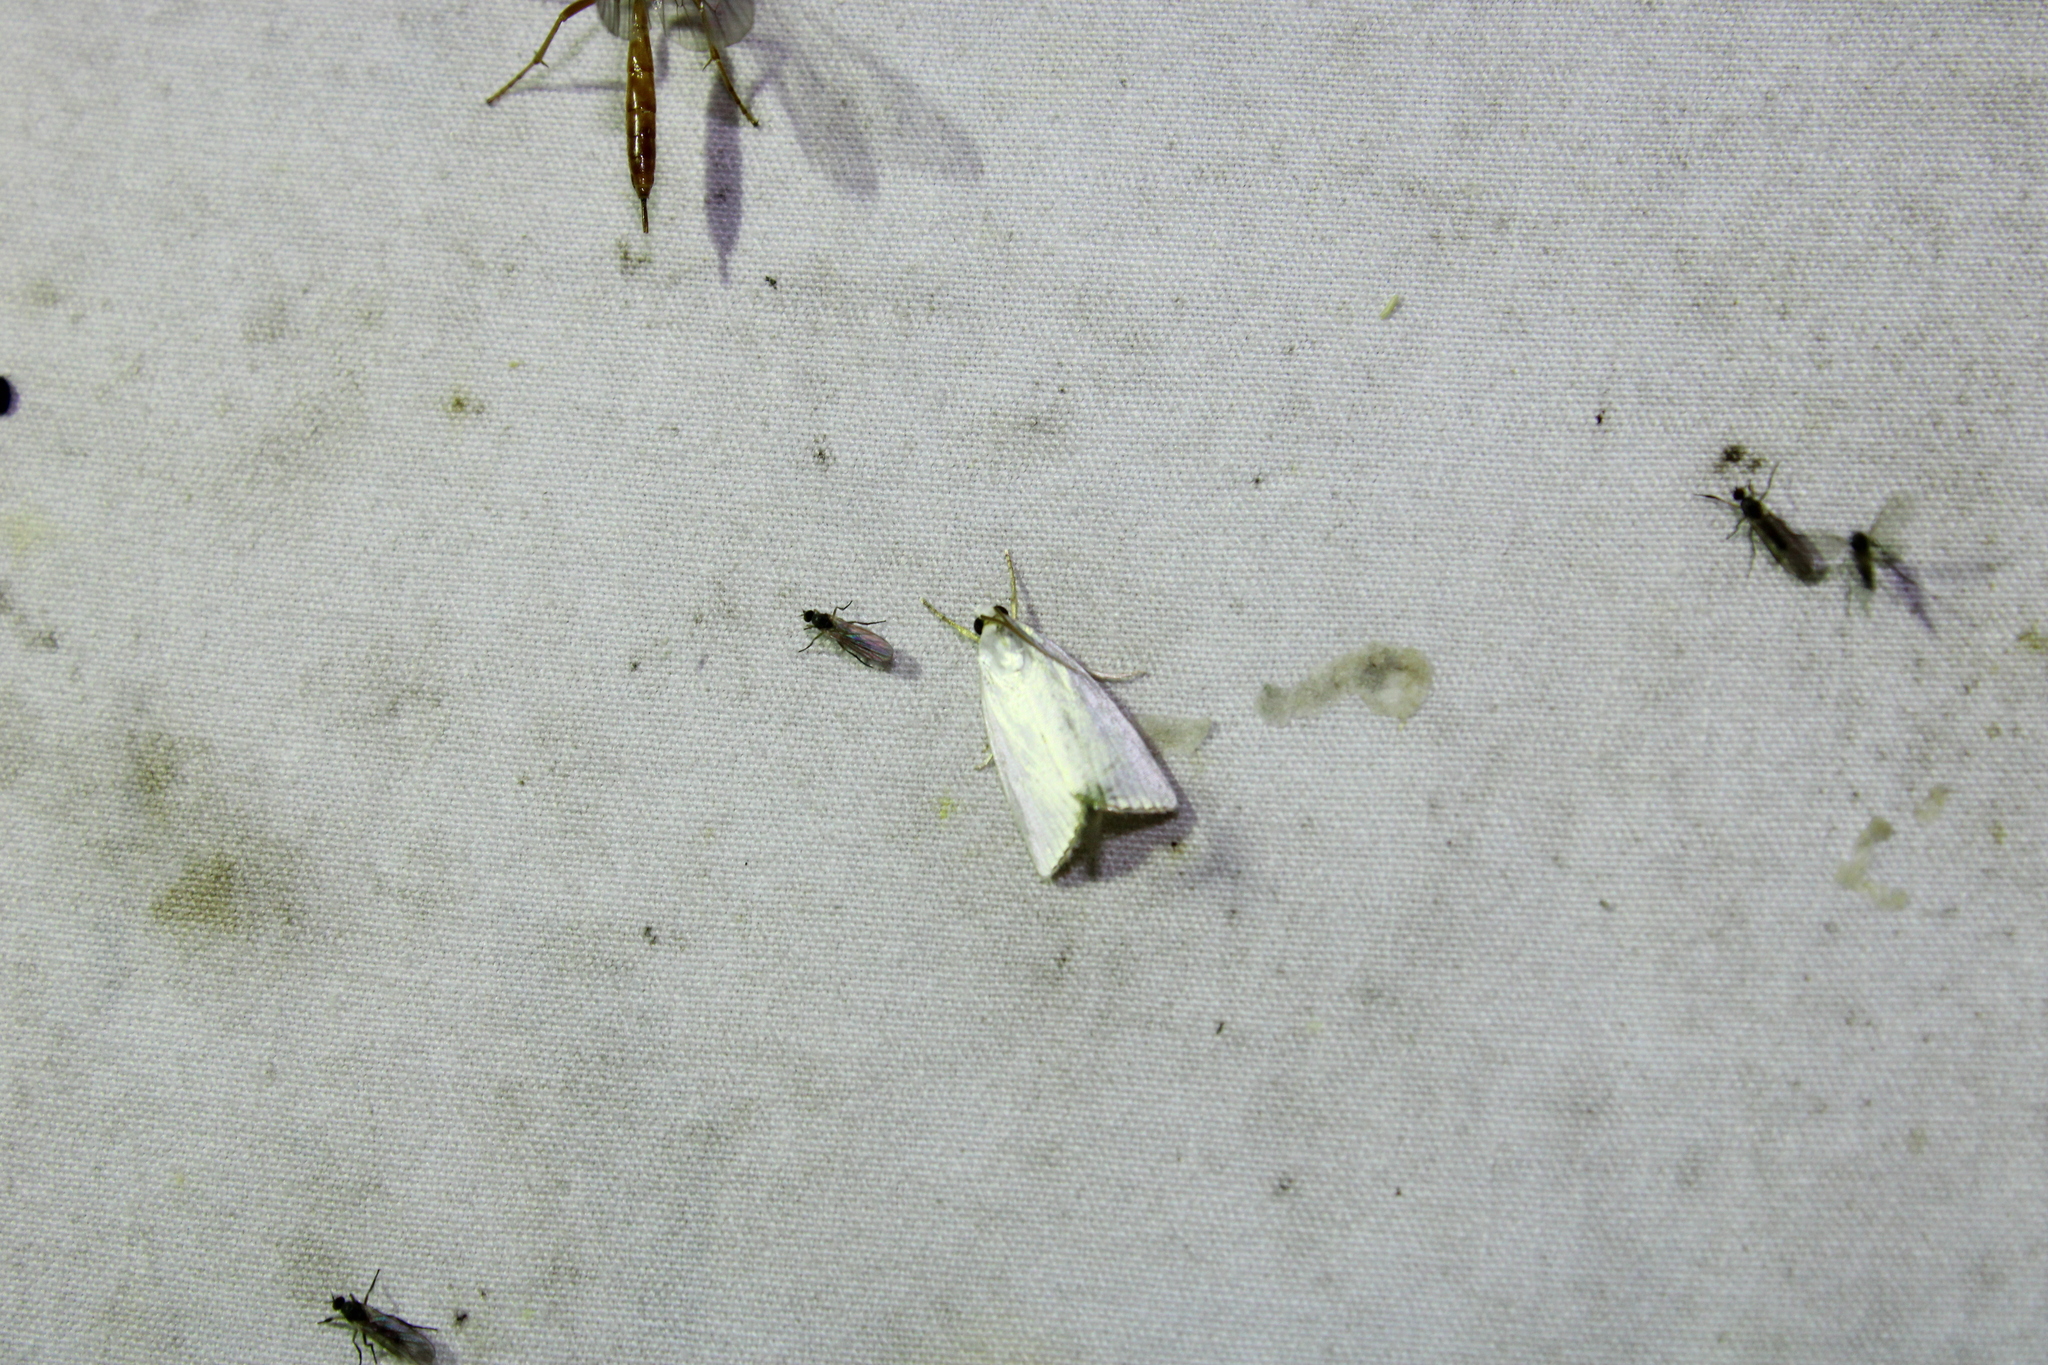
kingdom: Animalia
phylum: Arthropoda
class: Insecta
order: Lepidoptera
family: Crambidae
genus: Argyria
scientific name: Argyria nivalis
